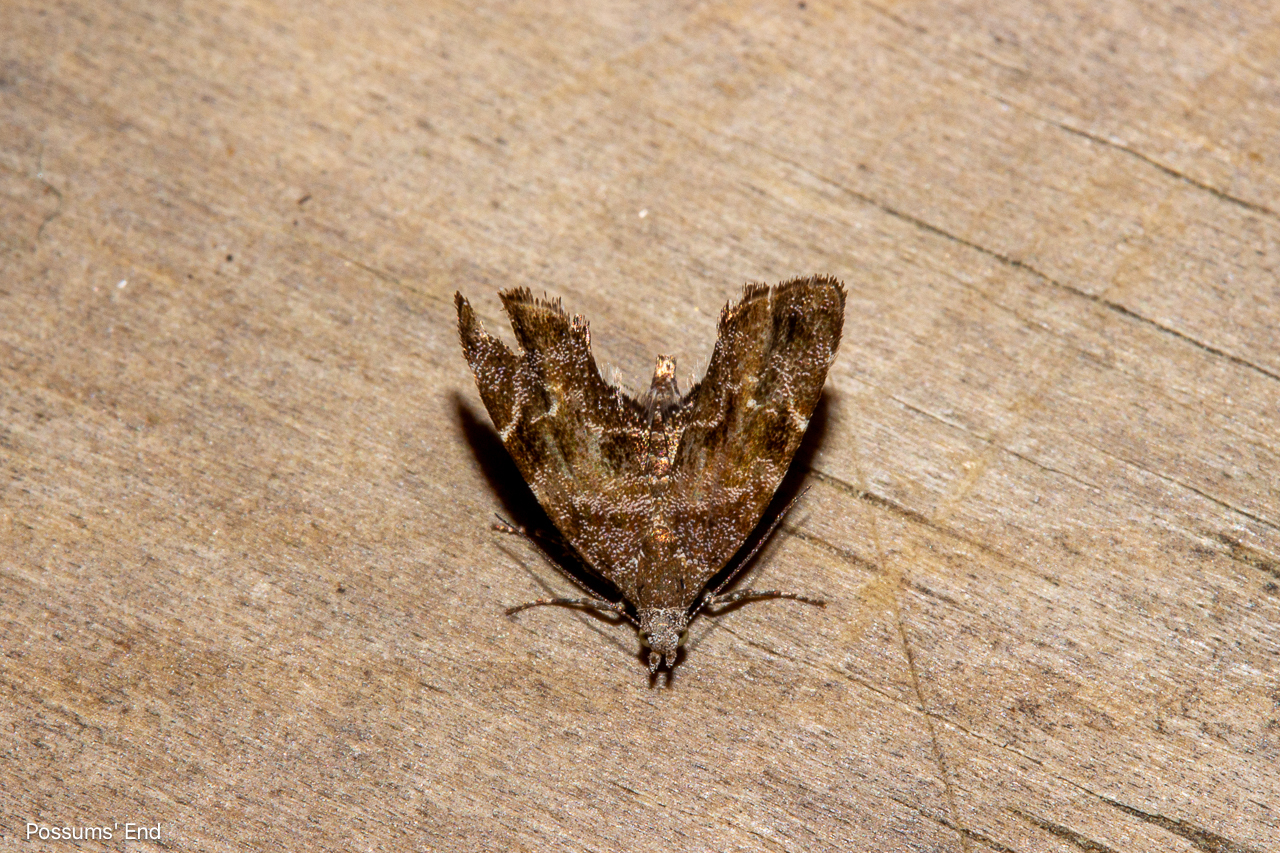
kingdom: Animalia
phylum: Arthropoda
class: Insecta
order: Lepidoptera
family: Choreutidae
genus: Asterivora
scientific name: Asterivora colpota
